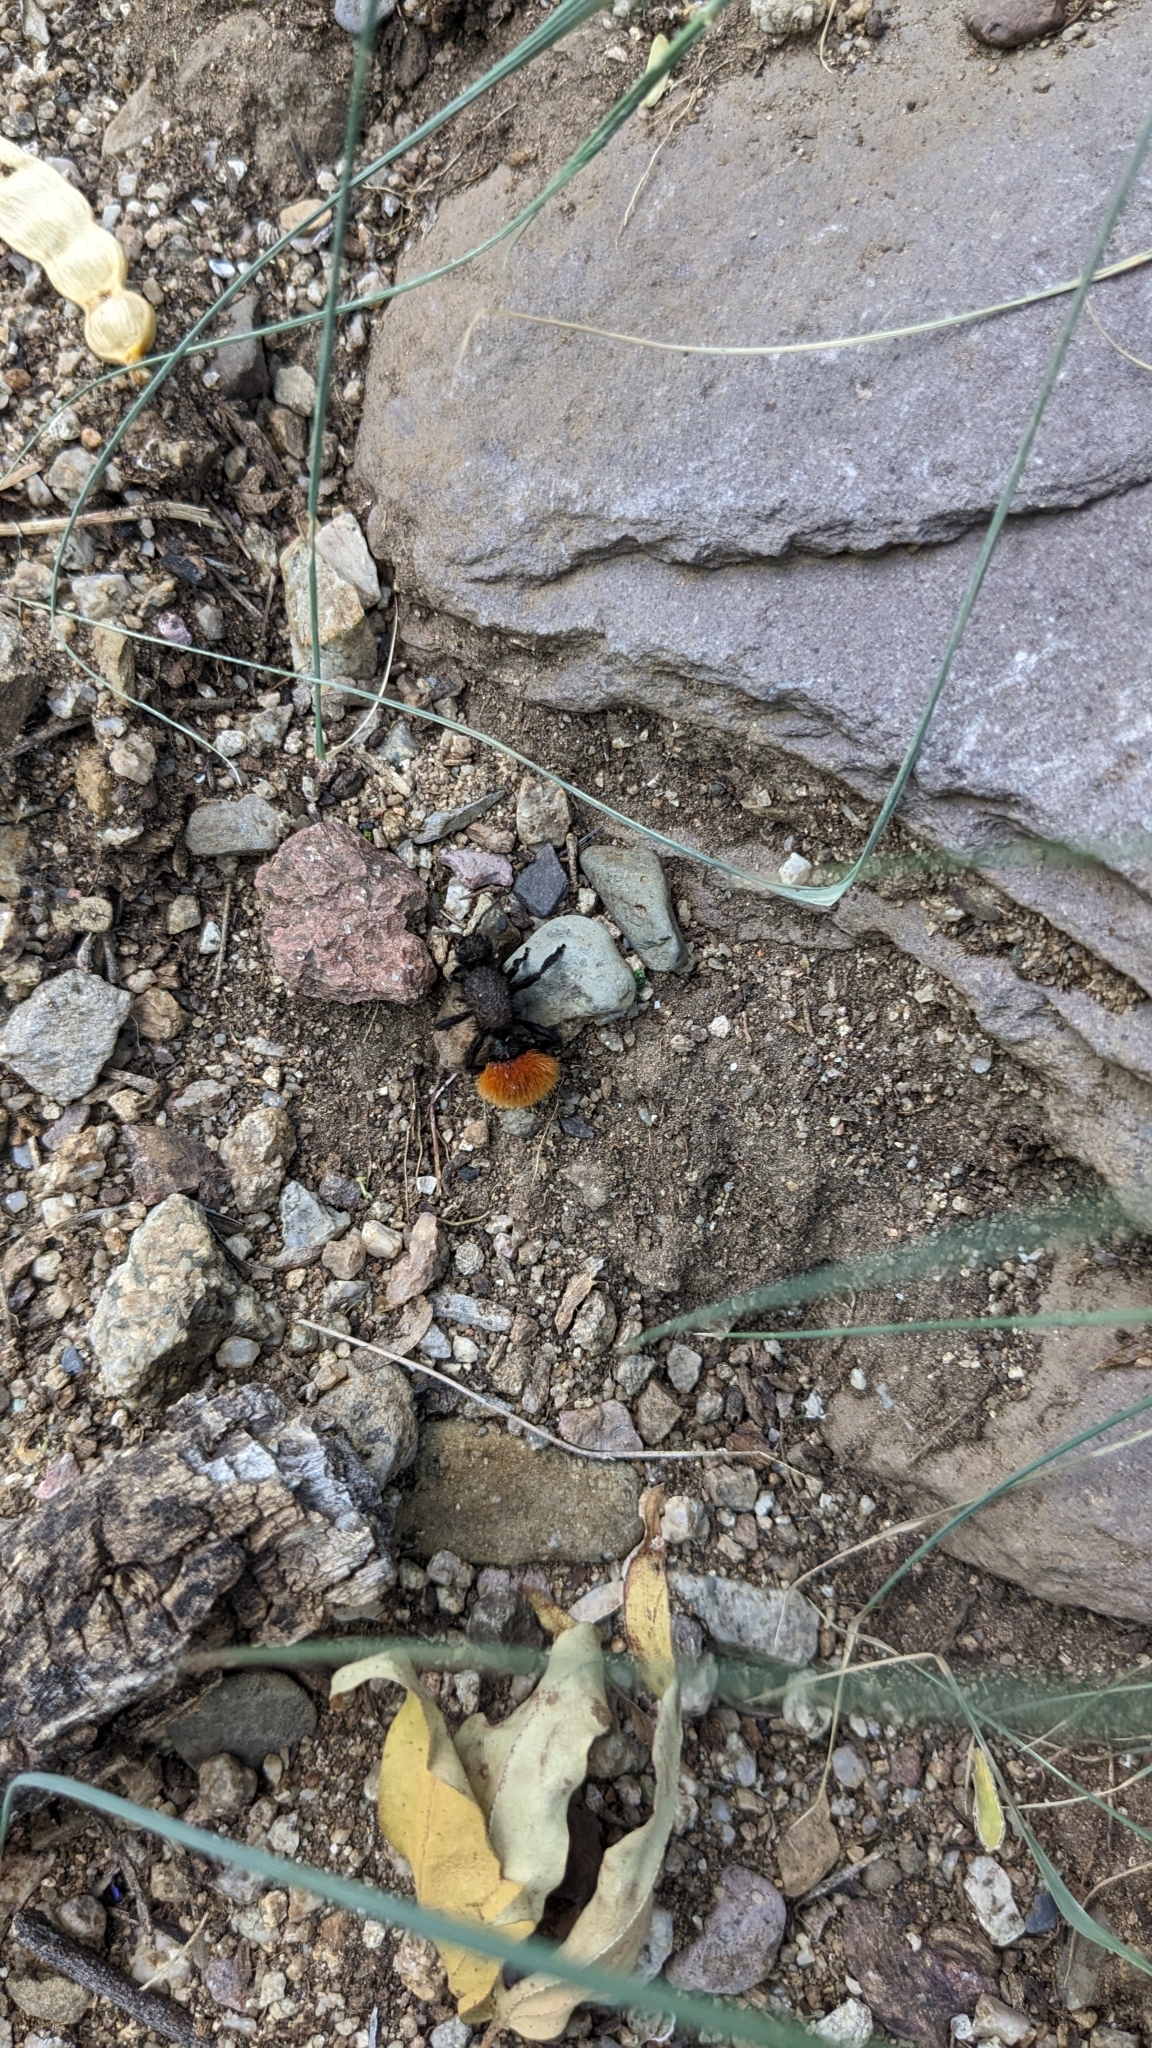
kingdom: Animalia
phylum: Arthropoda
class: Insecta
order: Hymenoptera
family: Mutillidae
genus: Dasymutilla
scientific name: Dasymutilla magnifica
